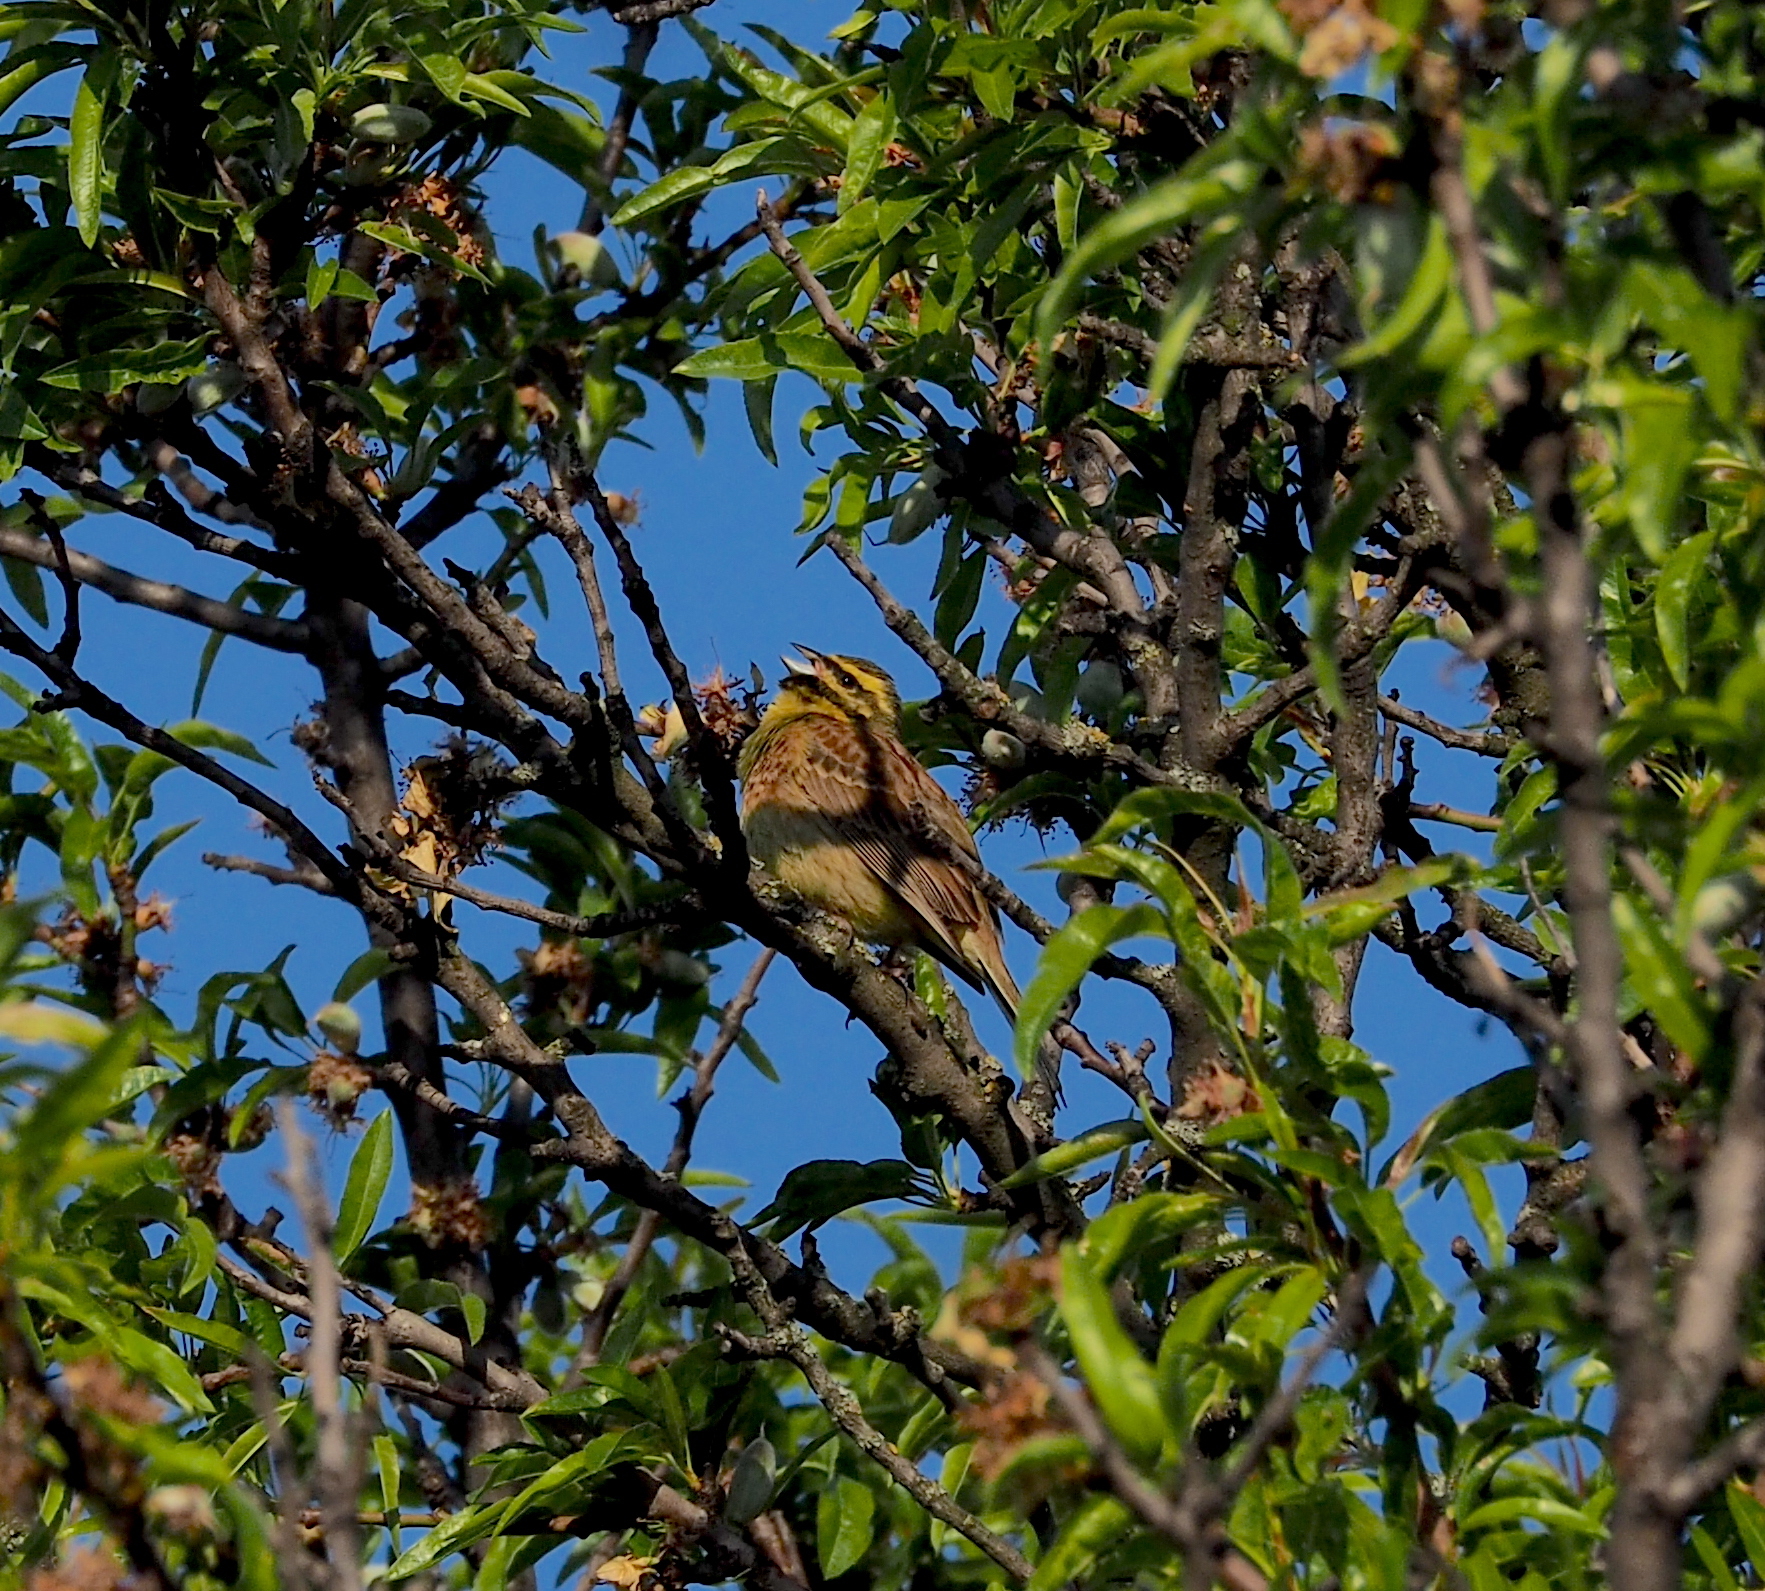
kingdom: Animalia
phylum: Chordata
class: Aves
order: Passeriformes
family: Emberizidae
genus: Emberiza
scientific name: Emberiza cirlus
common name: Cirl bunting
